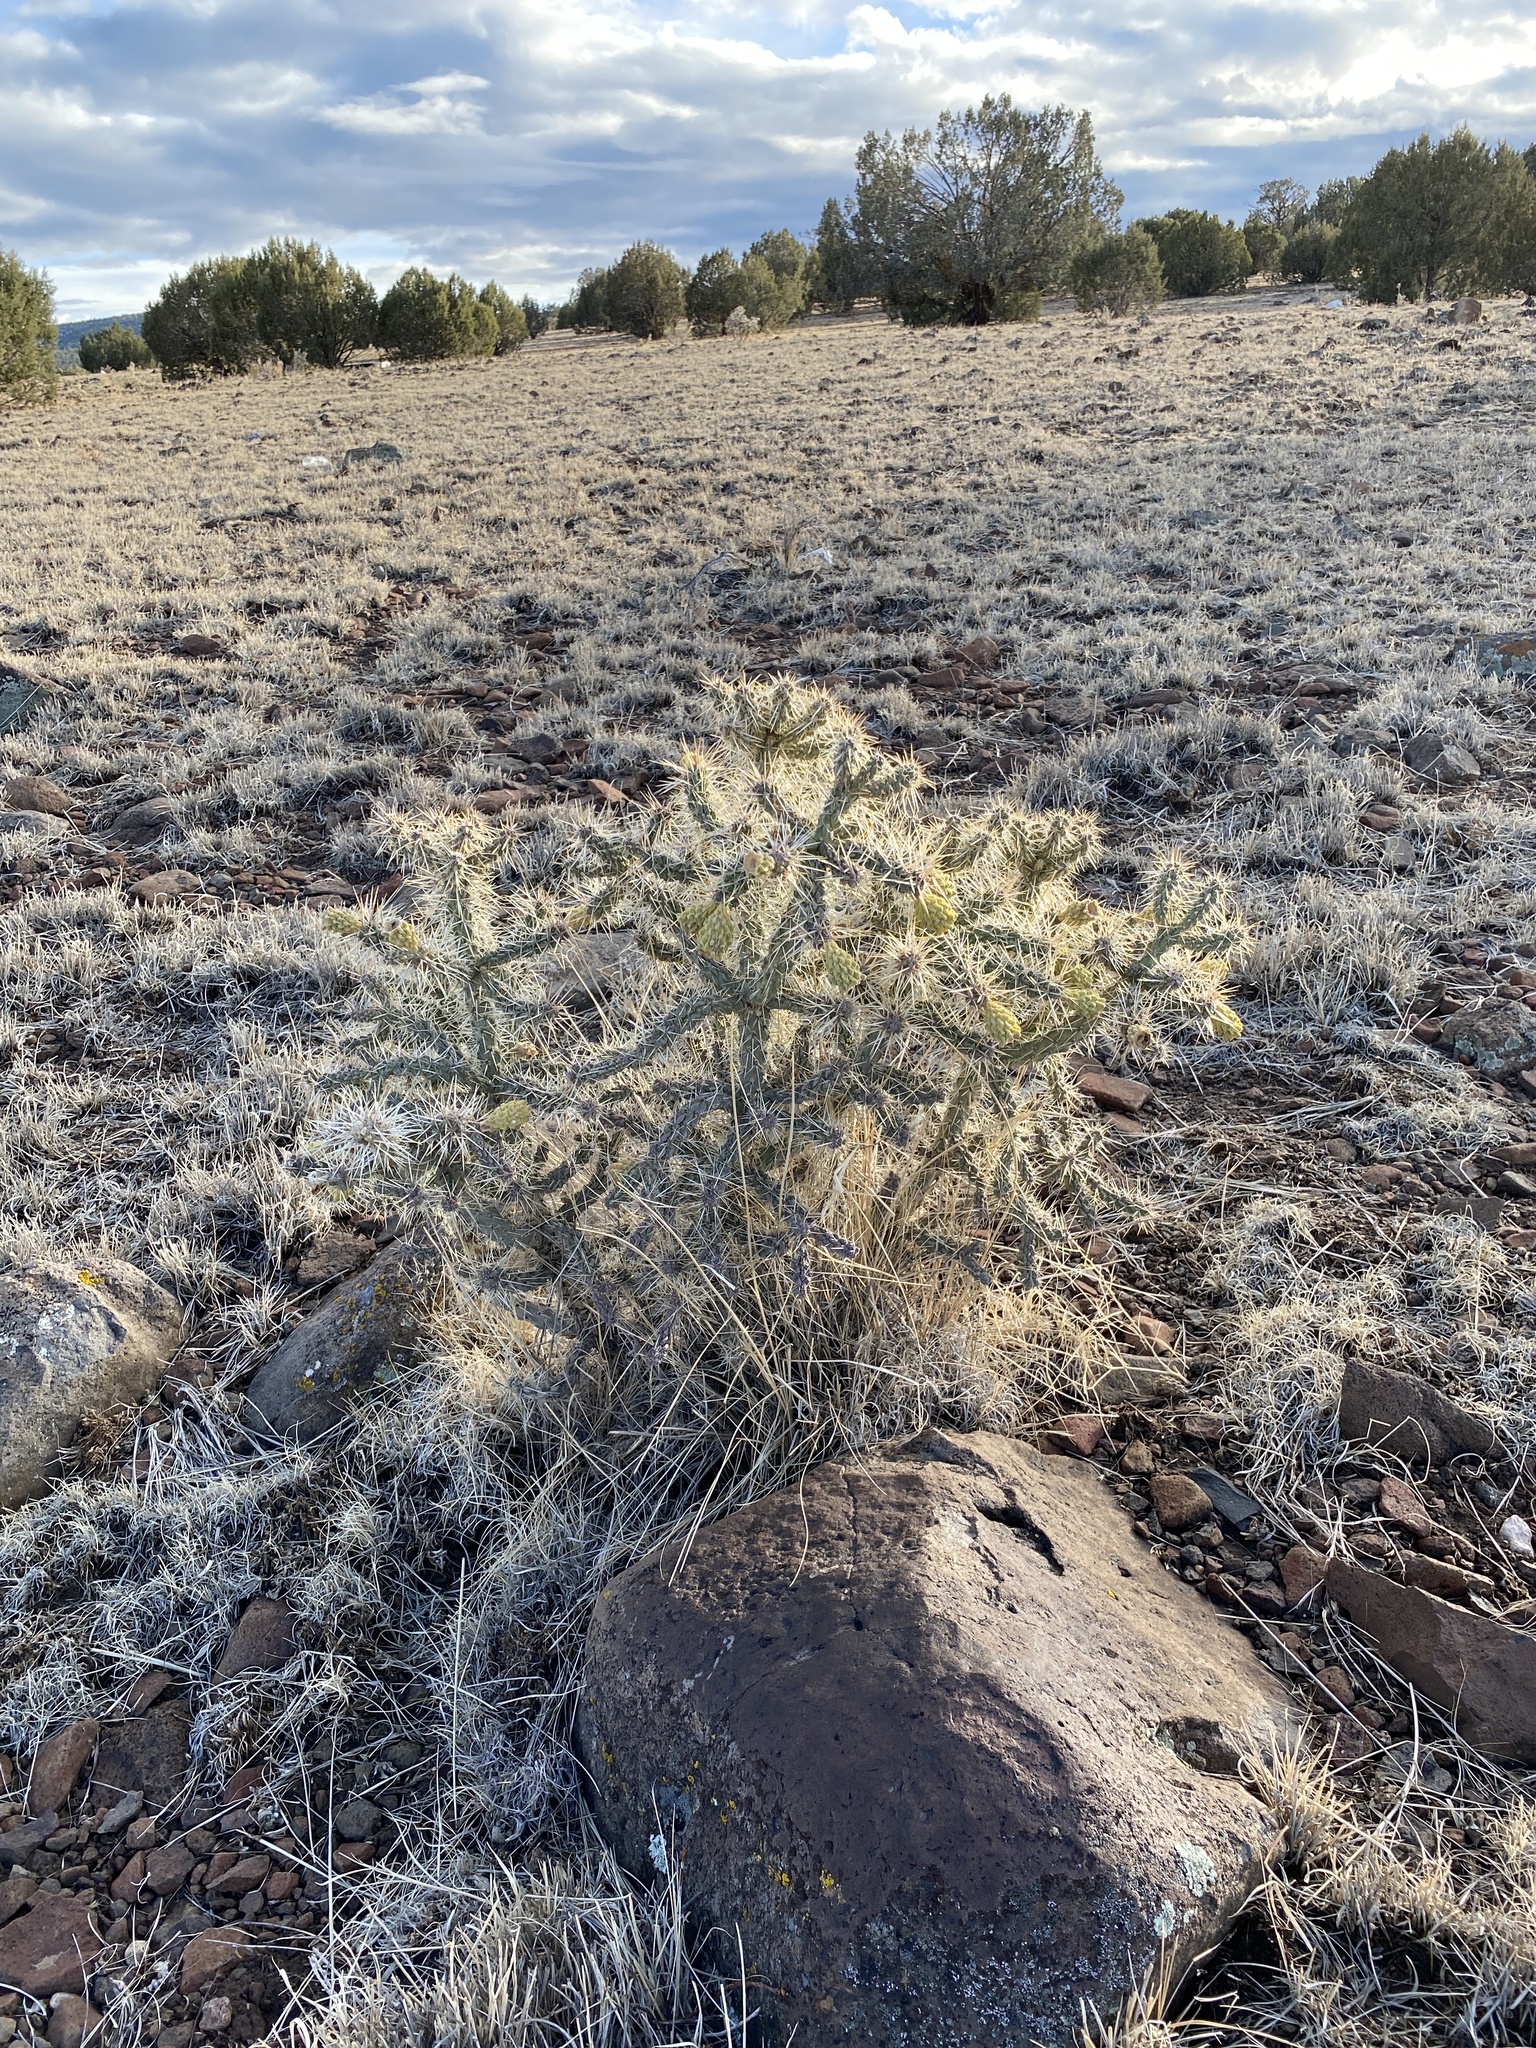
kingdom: Plantae
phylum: Tracheophyta
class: Magnoliopsida
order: Caryophyllales
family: Cactaceae
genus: Cylindropuntia
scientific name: Cylindropuntia whipplei
